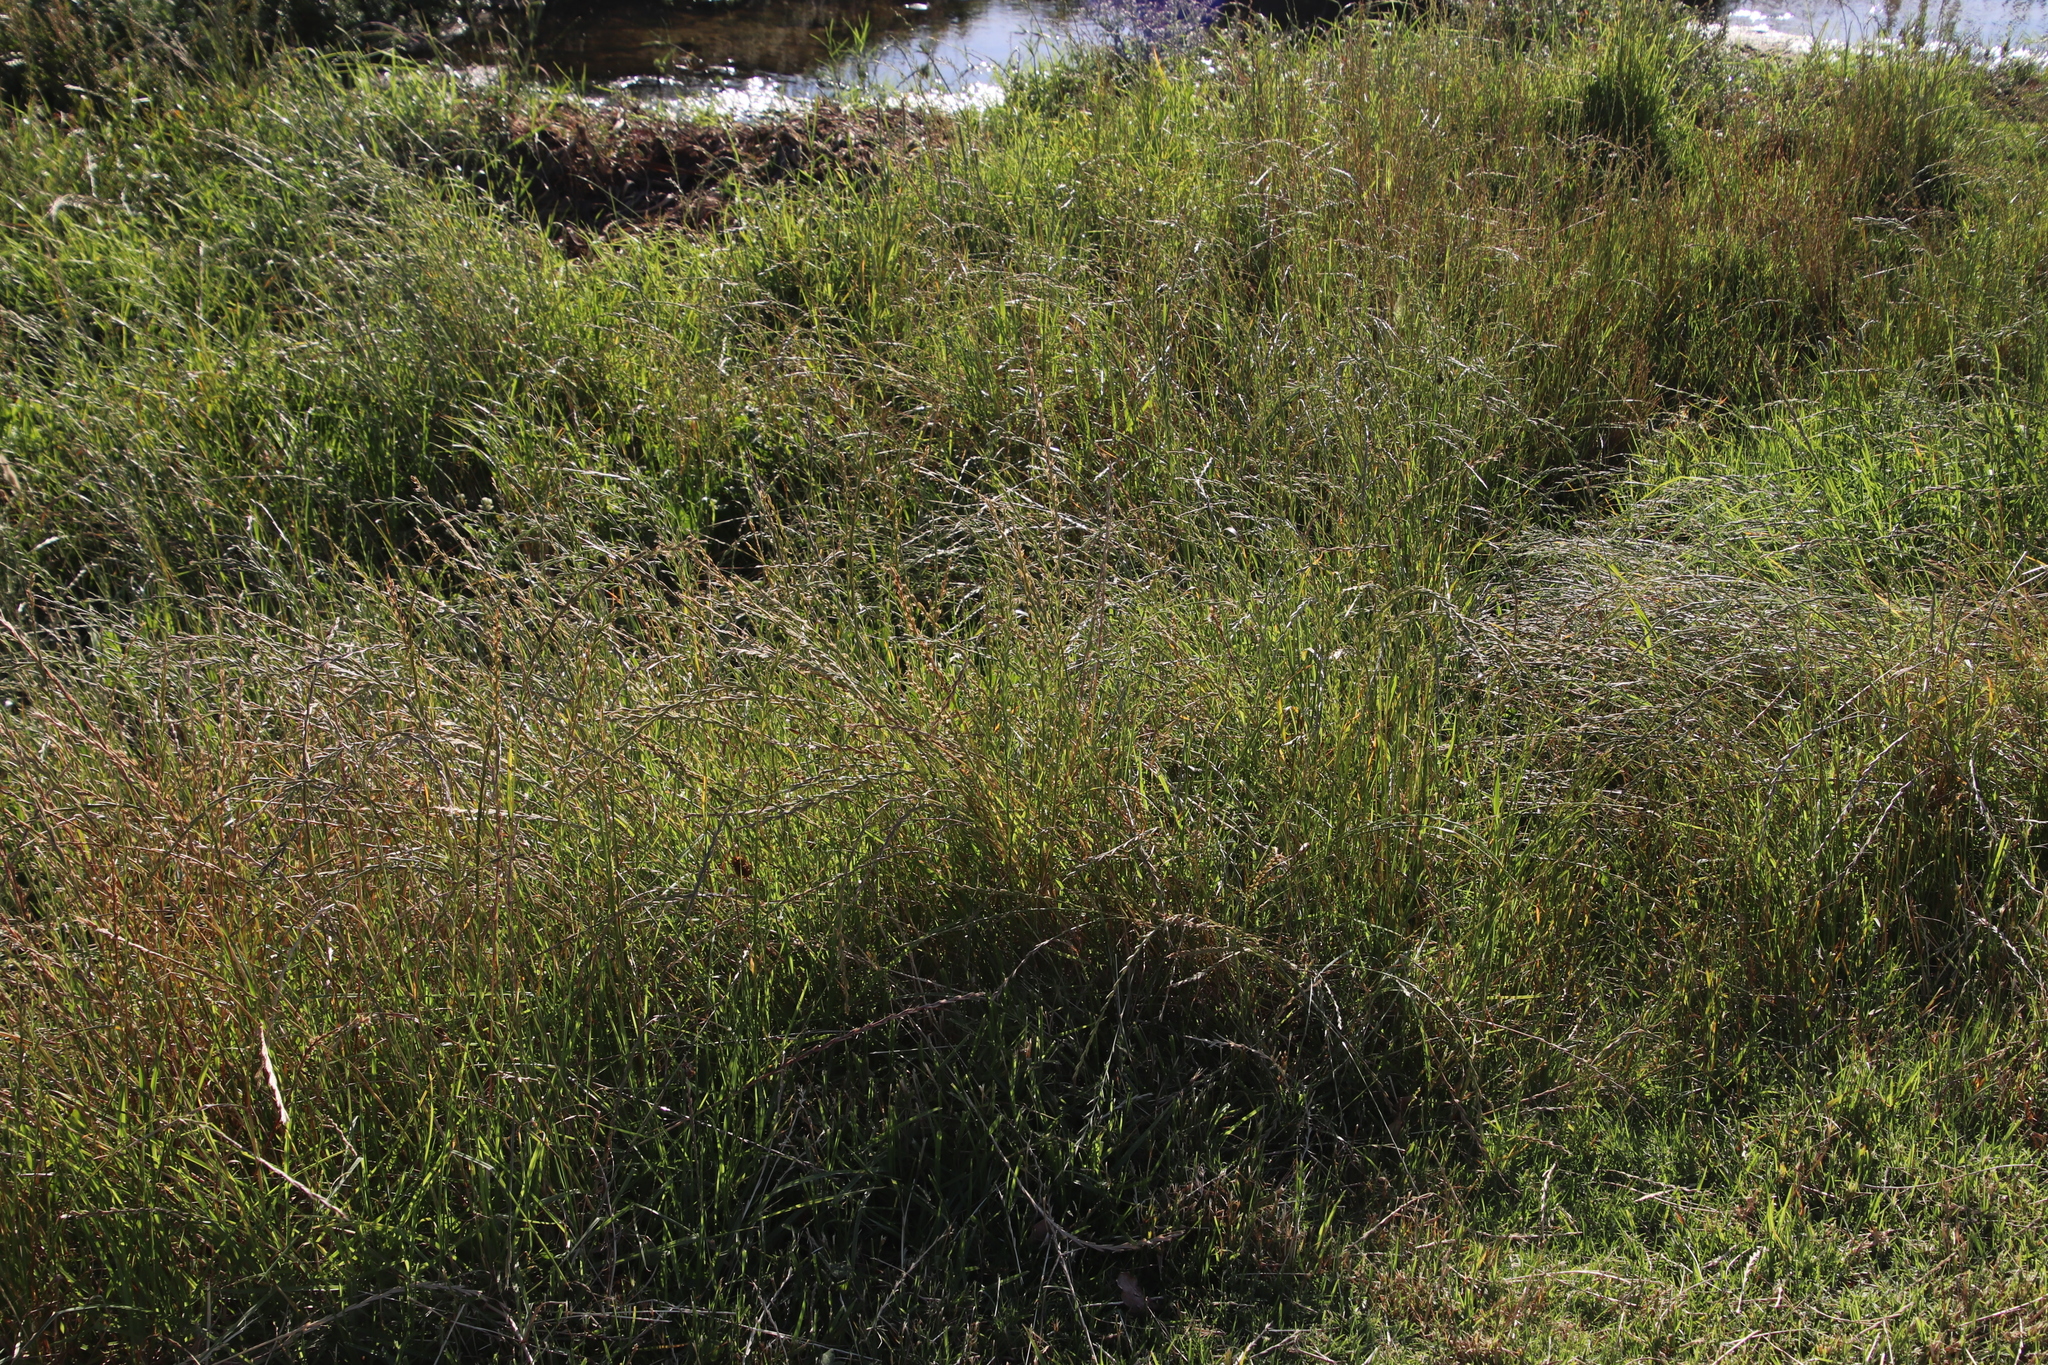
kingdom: Plantae
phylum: Tracheophyta
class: Liliopsida
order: Poales
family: Poaceae
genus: Lolium
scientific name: Lolium perenne
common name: Perennial ryegrass
